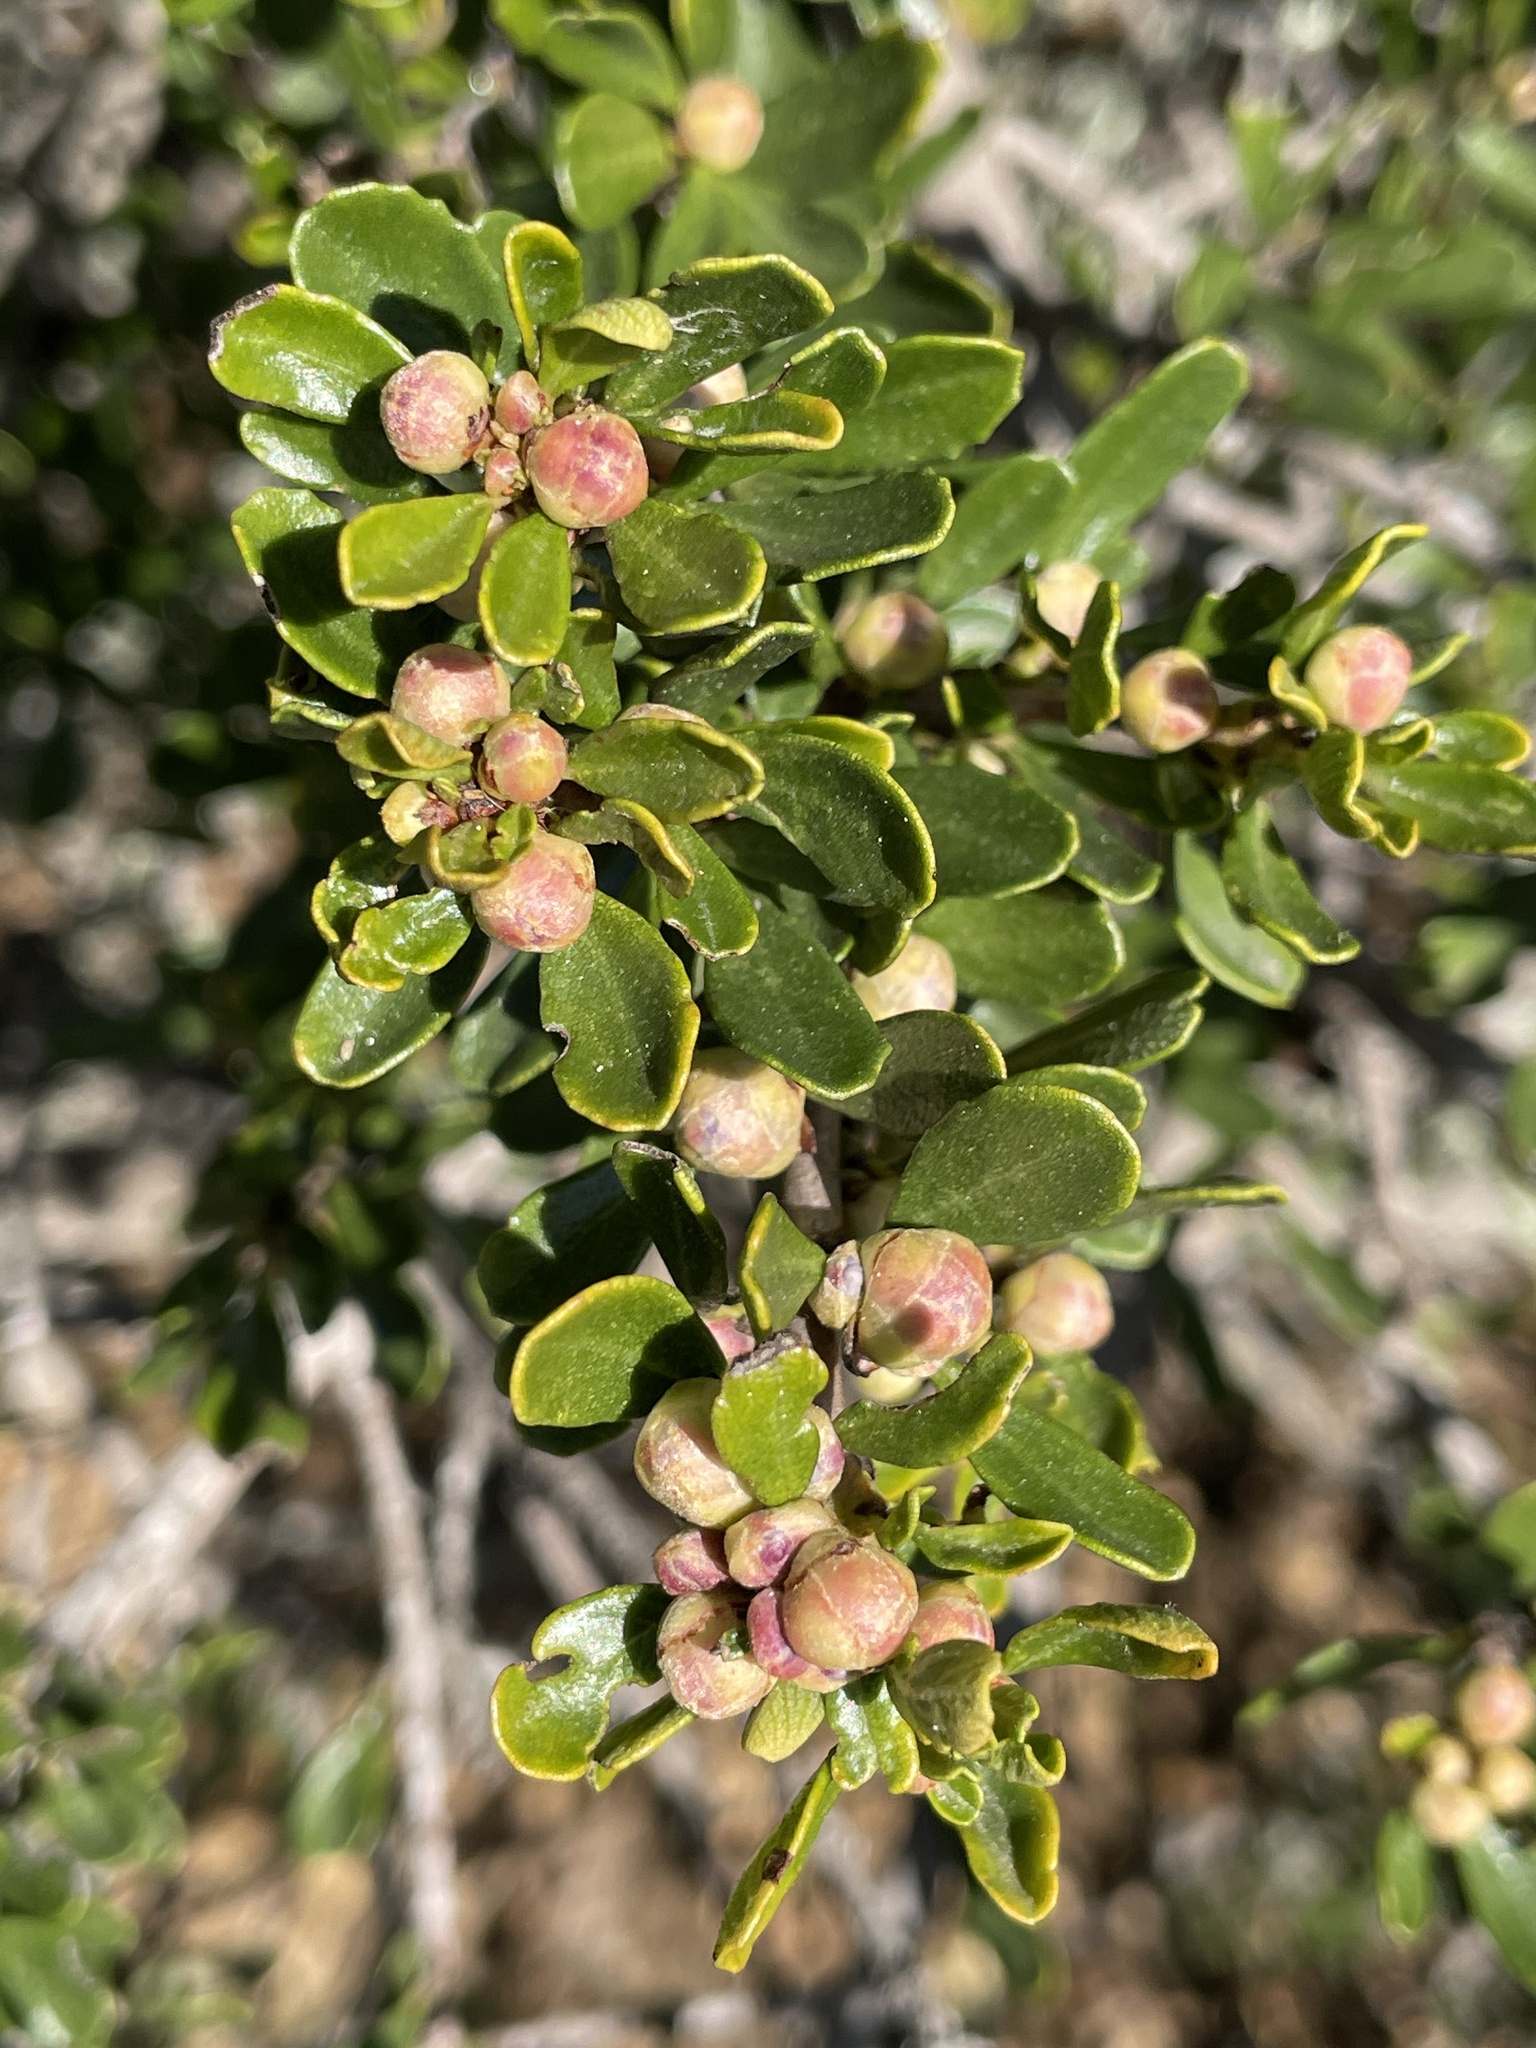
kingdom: Plantae
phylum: Tracheophyta
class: Magnoliopsida
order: Rosales
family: Rhamnaceae
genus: Ceanothus
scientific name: Ceanothus cuneatus
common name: Cuneate ceanothus
